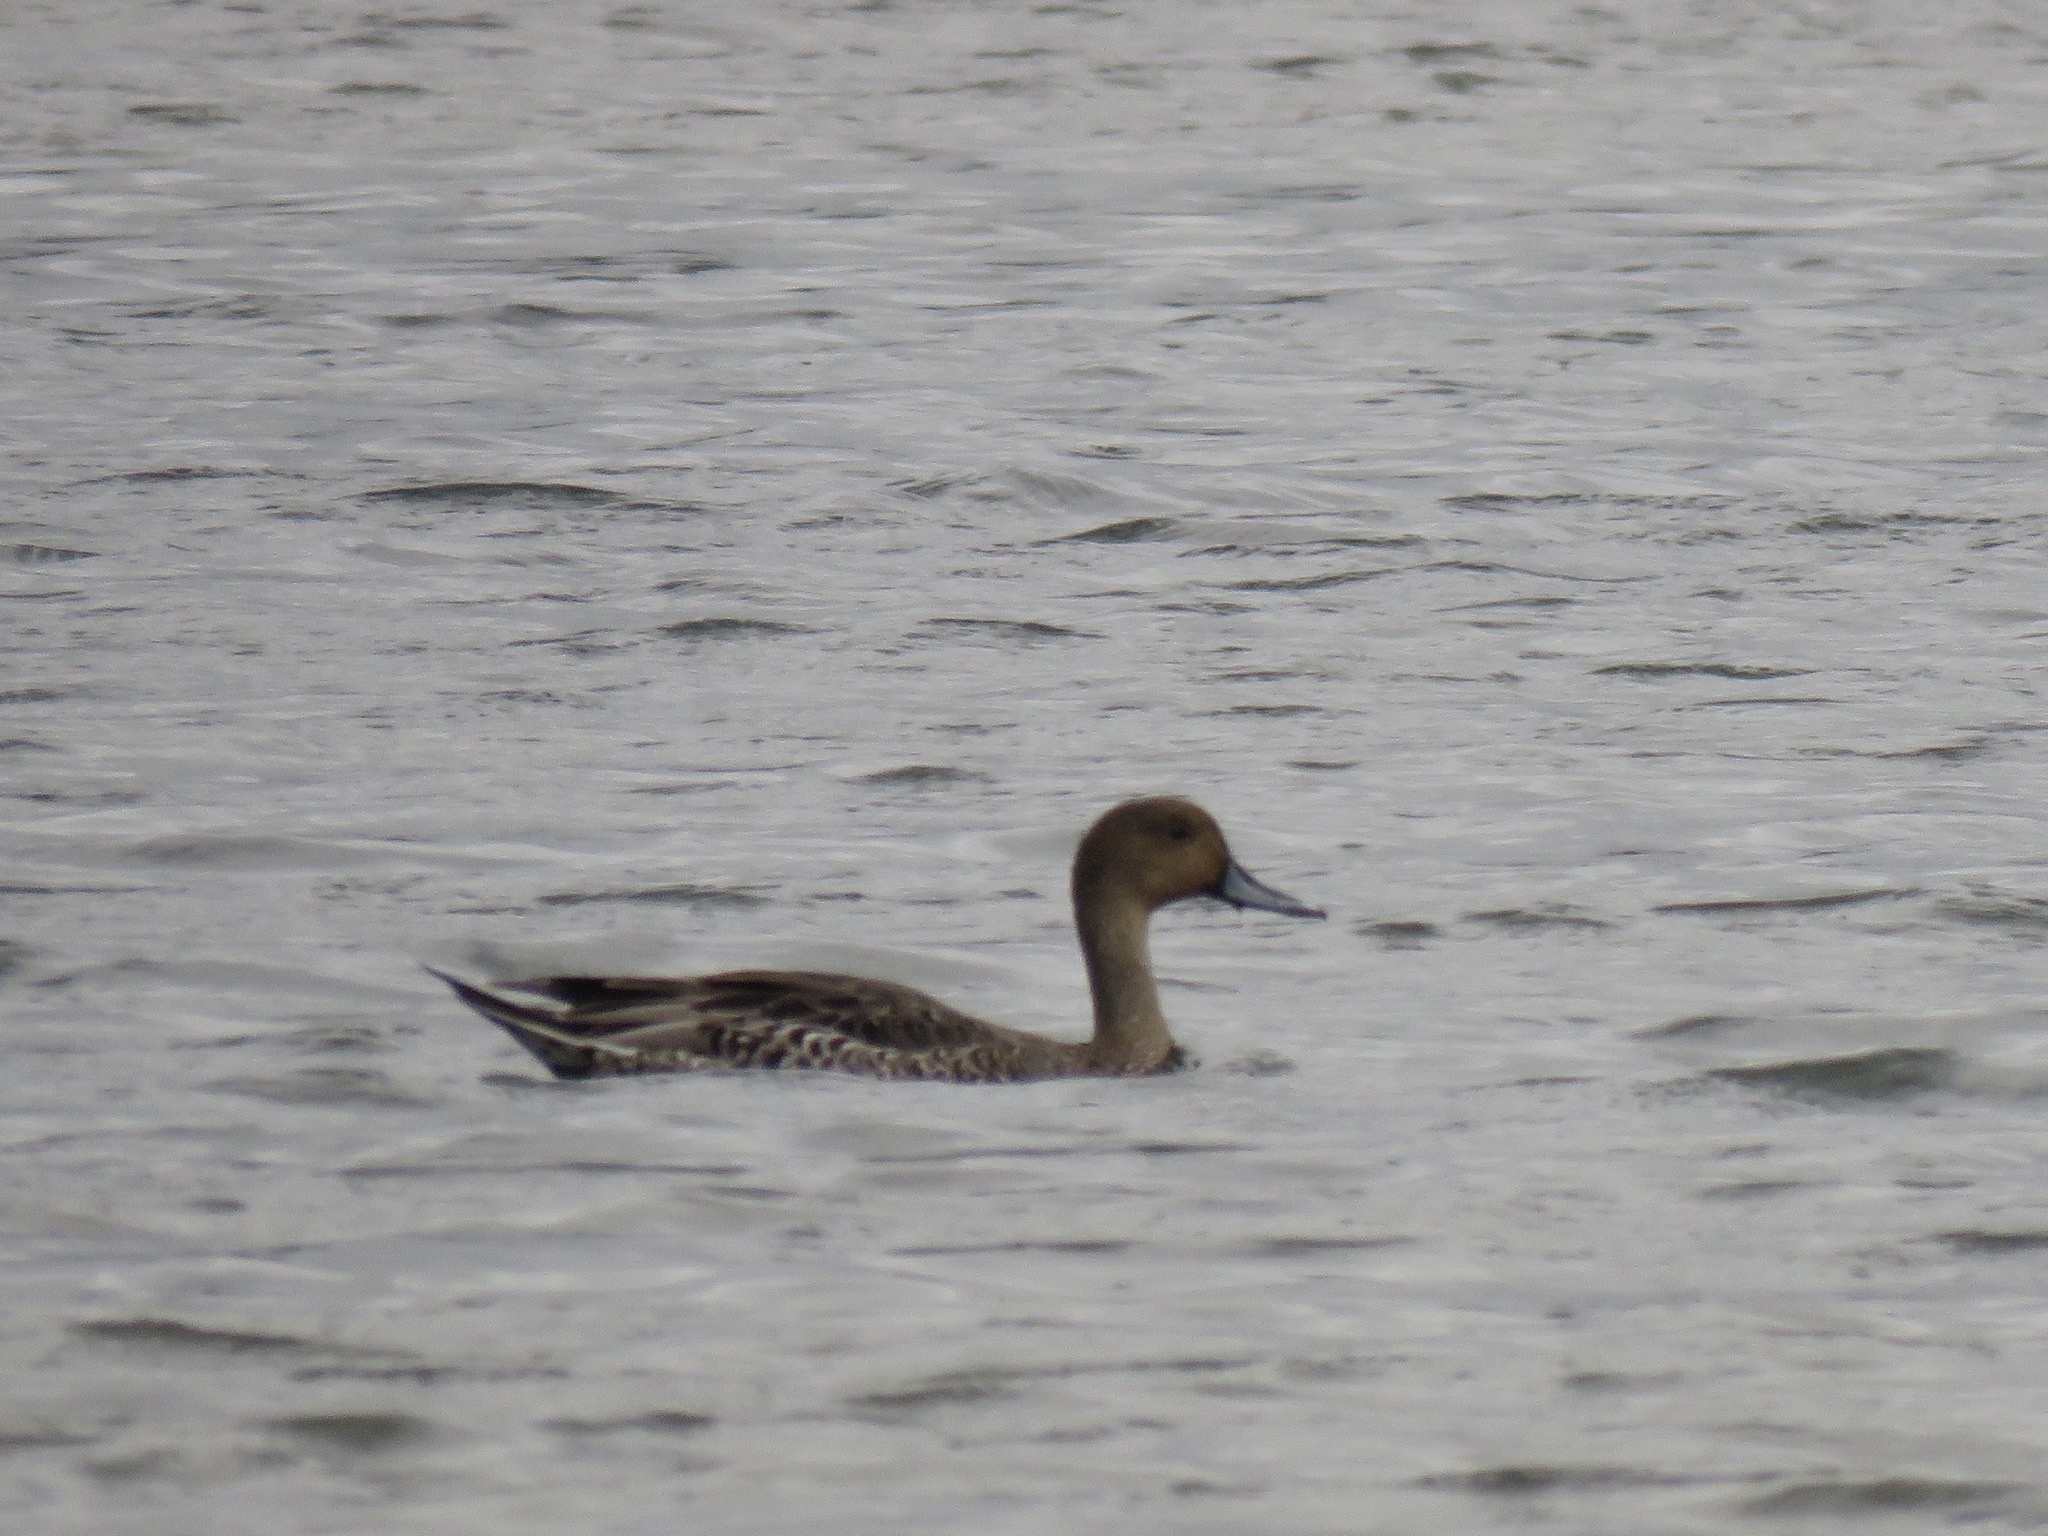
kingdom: Animalia
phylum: Chordata
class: Aves
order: Anseriformes
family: Anatidae
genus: Anas
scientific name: Anas acuta
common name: Northern pintail
